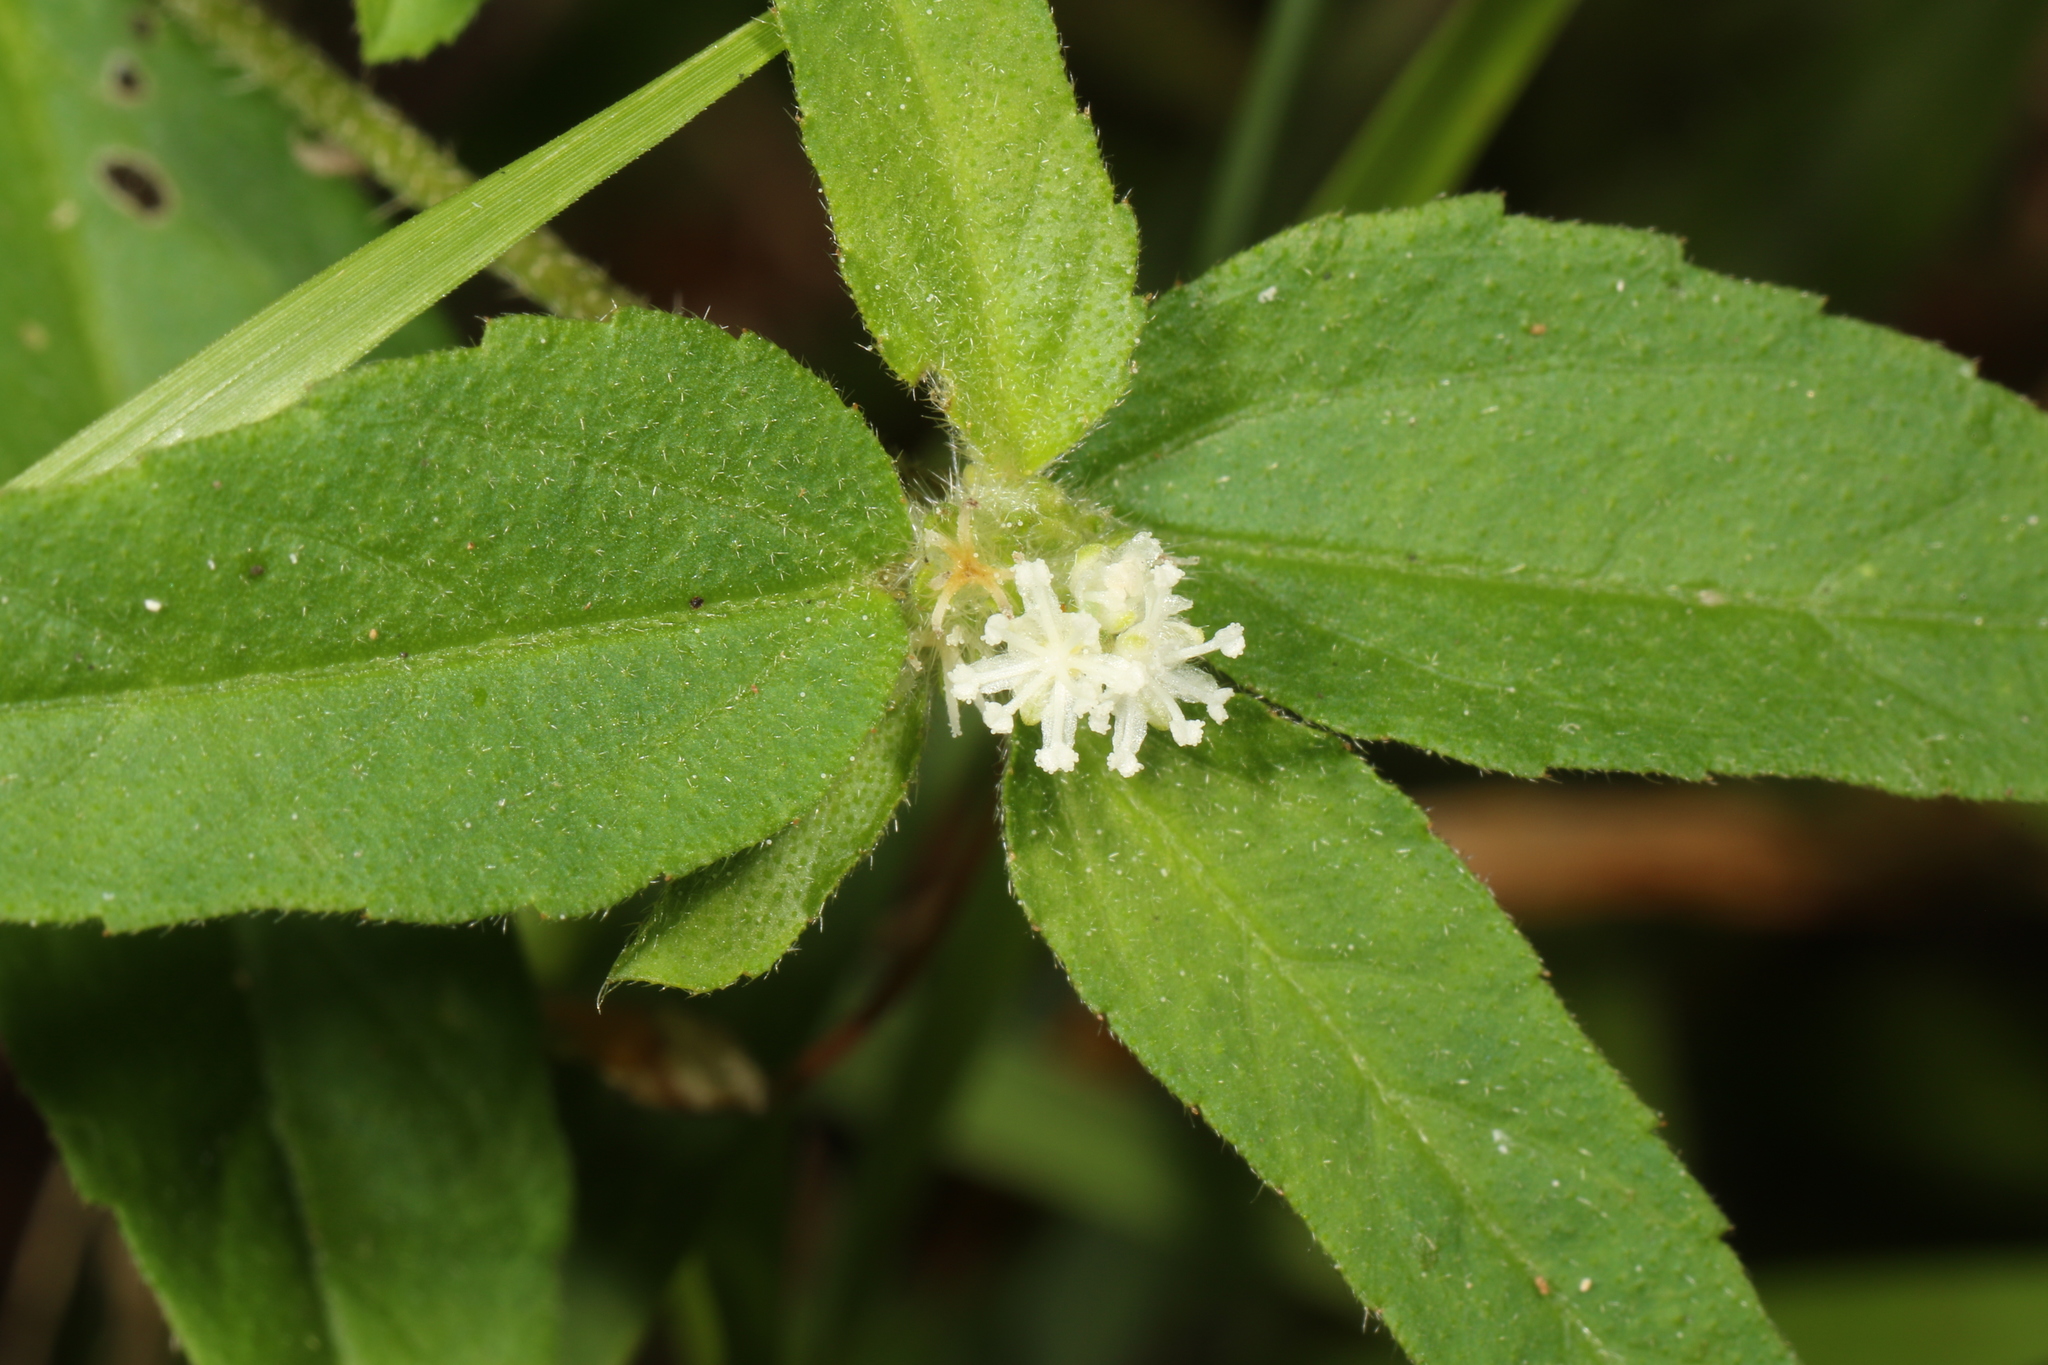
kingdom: Plantae
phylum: Tracheophyta
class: Magnoliopsida
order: Malpighiales
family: Euphorbiaceae
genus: Croton
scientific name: Croton glandulosus
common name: Tropic croton
